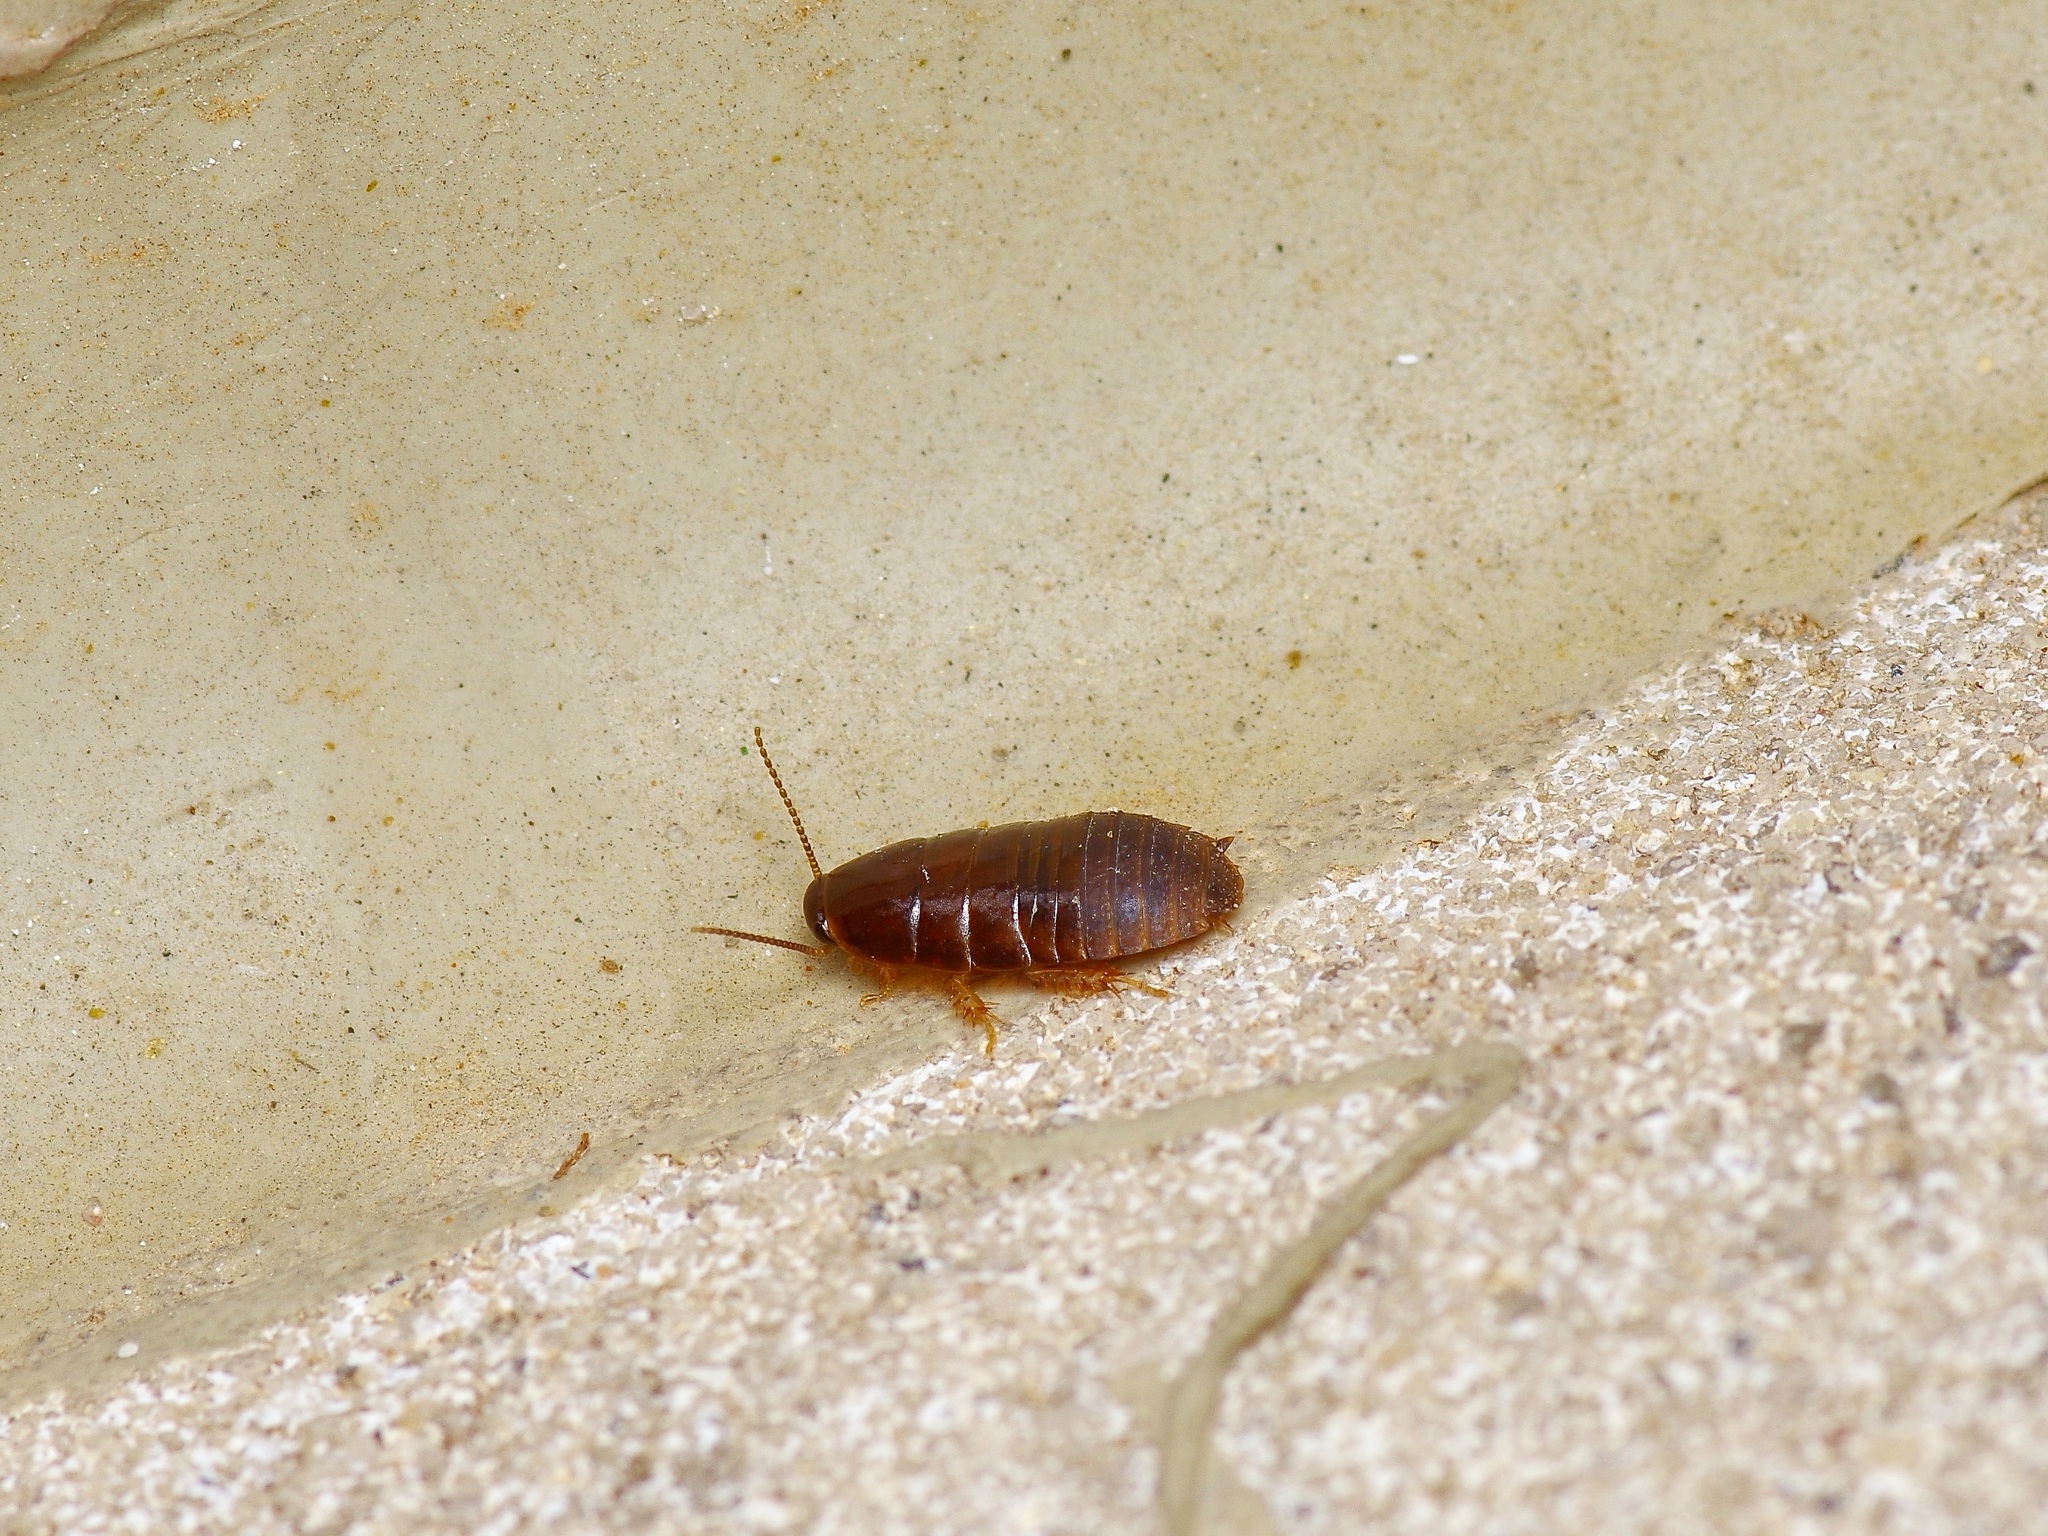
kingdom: Animalia
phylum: Arthropoda
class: Insecta
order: Blattodea
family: Blaberidae
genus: Pycnoscelus
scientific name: Pycnoscelus surinamensis
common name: Surinam cockroach
